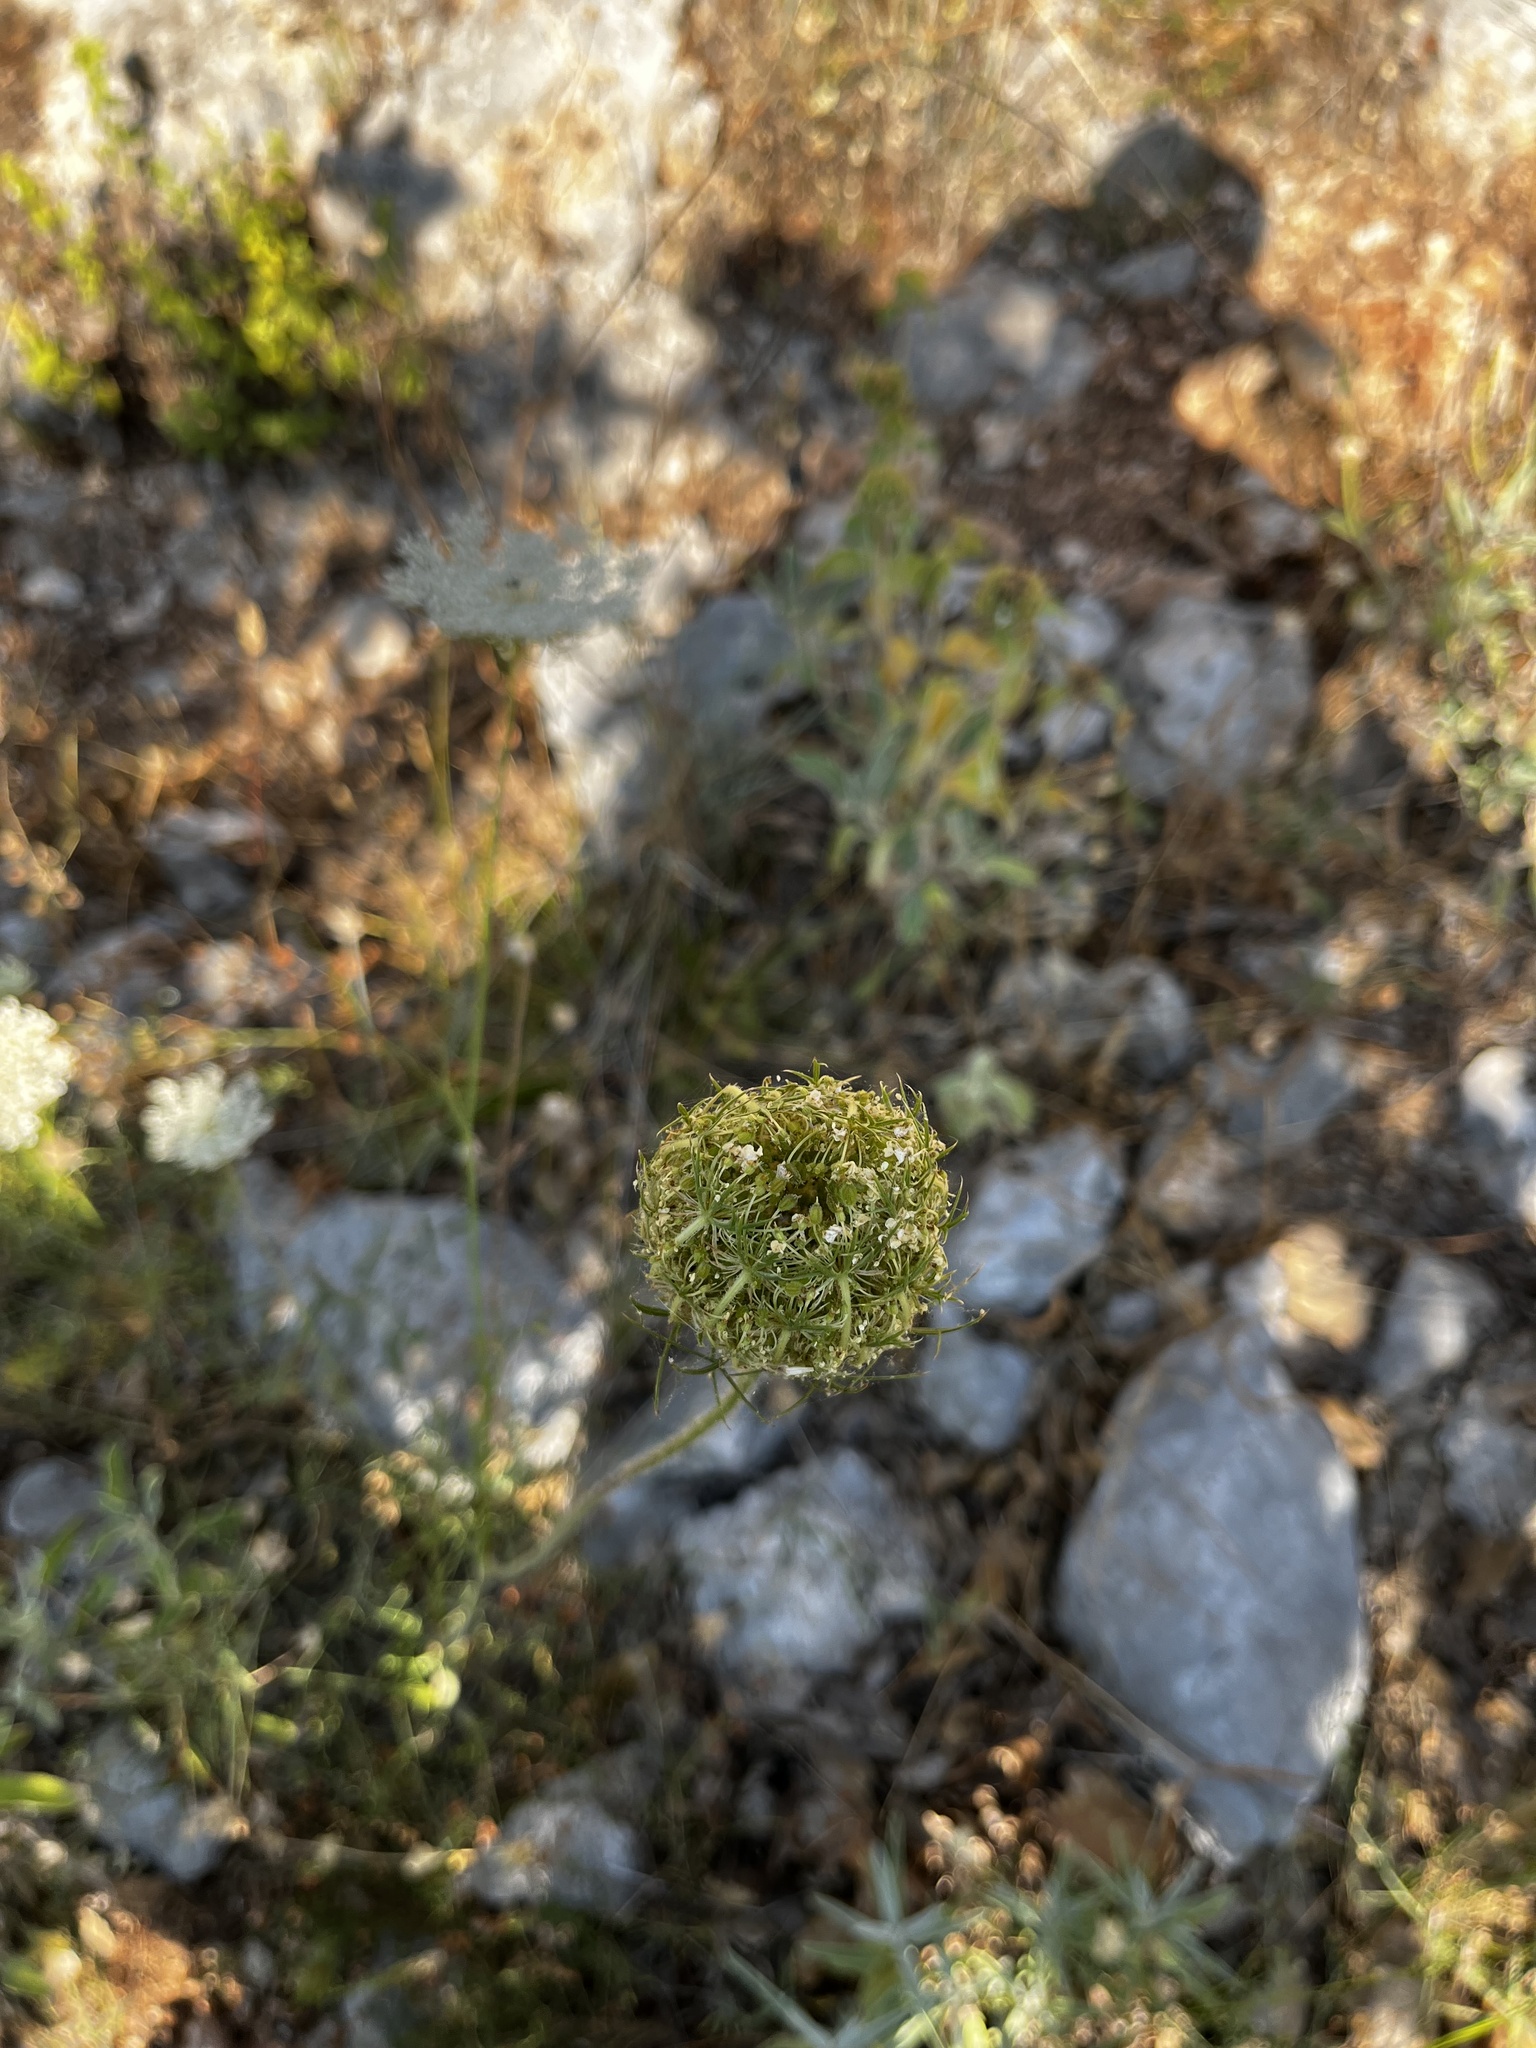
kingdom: Plantae
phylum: Tracheophyta
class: Magnoliopsida
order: Apiales
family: Apiaceae
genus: Daucus
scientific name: Daucus carota
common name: Wild carrot
